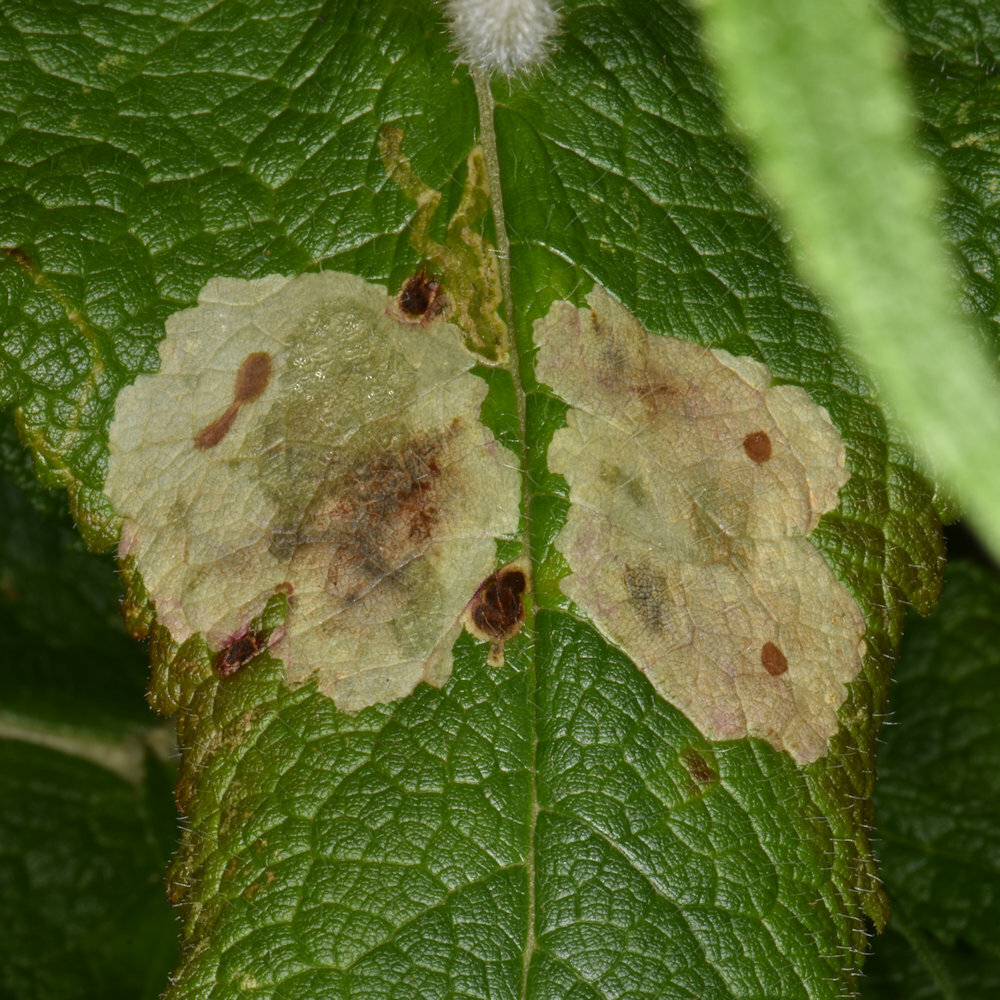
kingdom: Animalia
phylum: Arthropoda
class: Insecta
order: Diptera
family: Agromyzidae
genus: Calycomyza
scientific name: Calycomyza flavinotum
